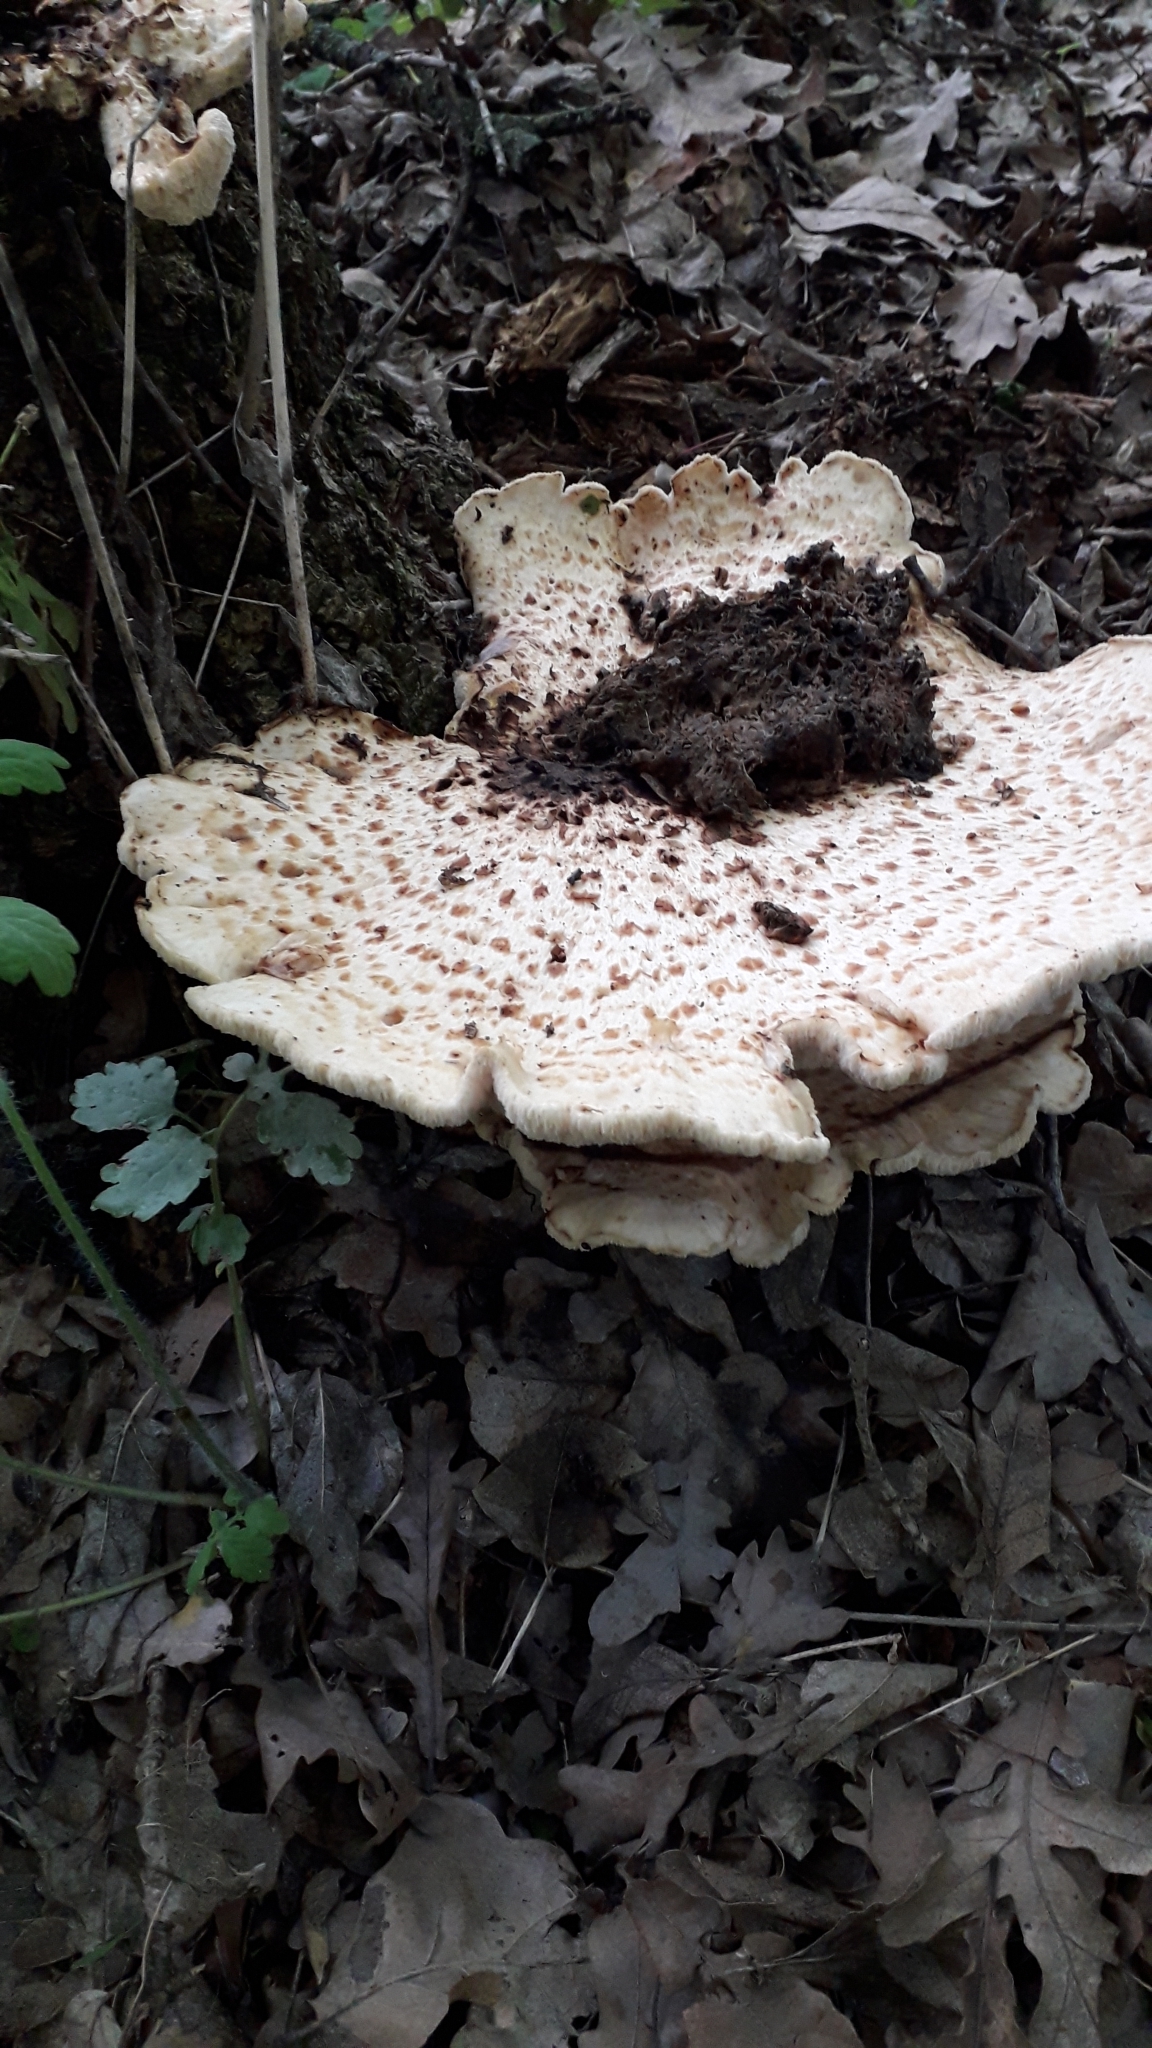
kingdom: Fungi
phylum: Basidiomycota
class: Agaricomycetes
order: Polyporales
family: Polyporaceae
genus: Cerioporus
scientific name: Cerioporus squamosus
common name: Dryad's saddle
